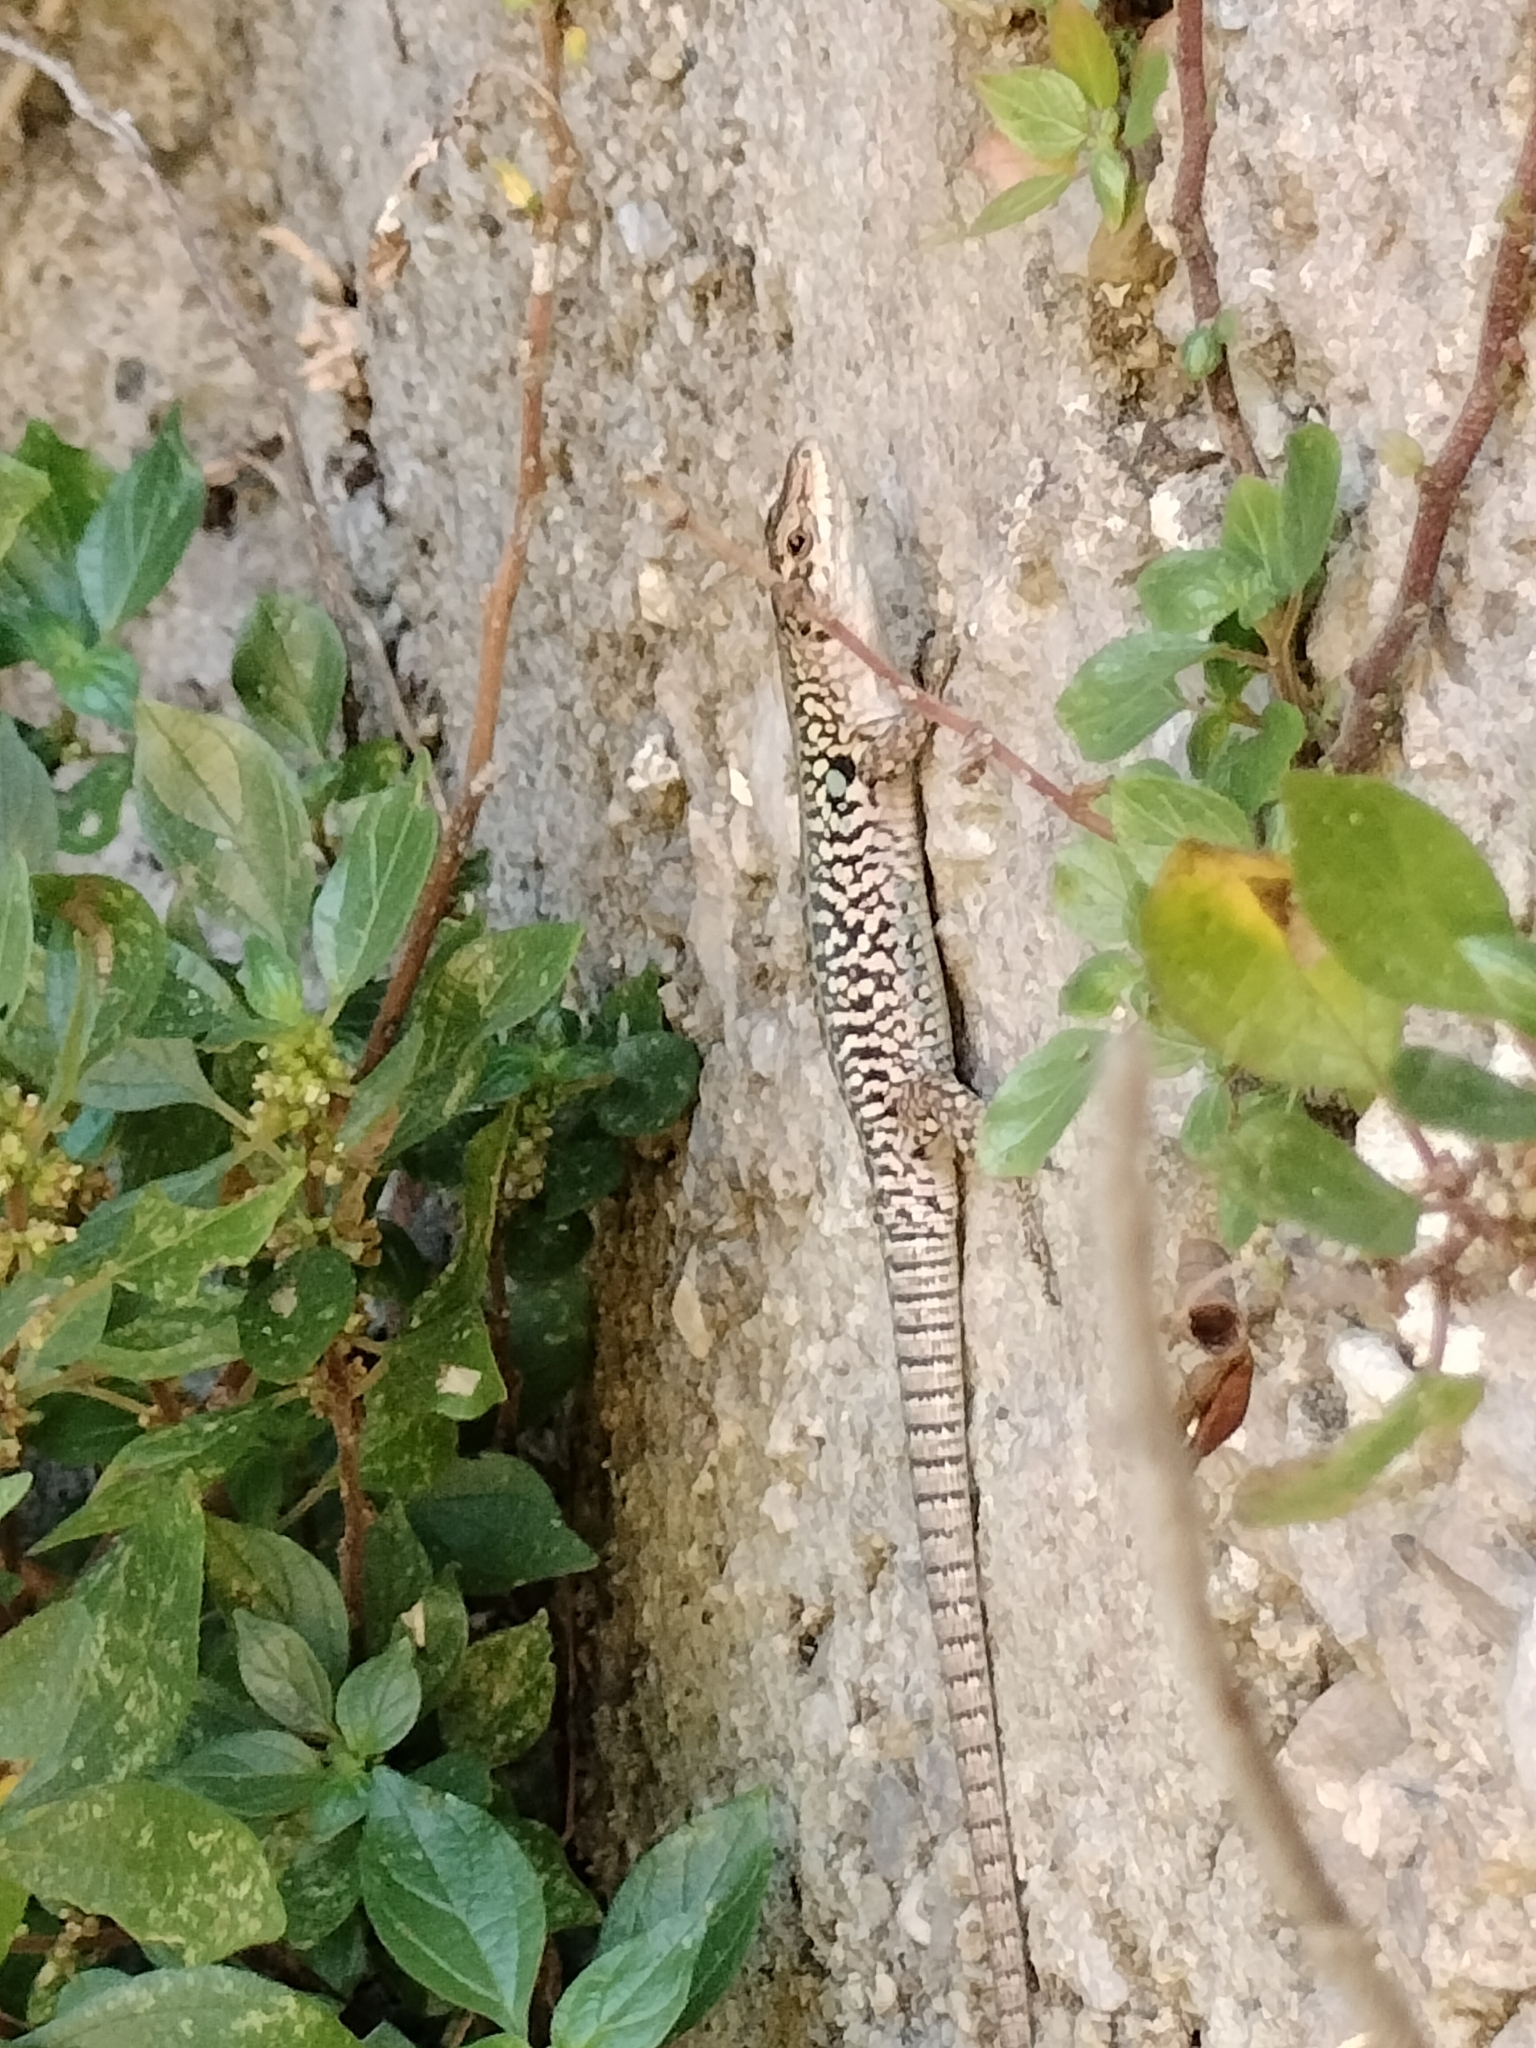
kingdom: Animalia
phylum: Chordata
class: Squamata
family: Lacertidae
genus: Podarcis
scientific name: Podarcis siculus
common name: Italian wall lizard
